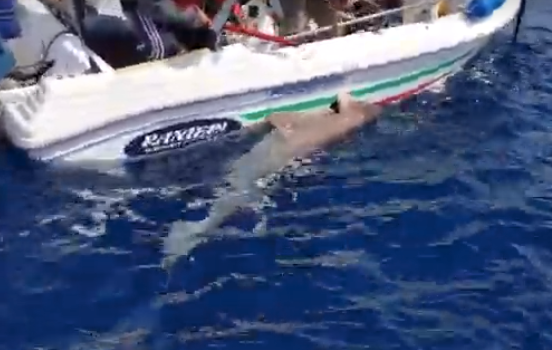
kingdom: Animalia
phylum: Chordata
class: Elasmobranchii
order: Hexanchiformes
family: Hexanchidae
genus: Hexanchus
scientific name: Hexanchus griseus
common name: Bluntnose sixgill shark
